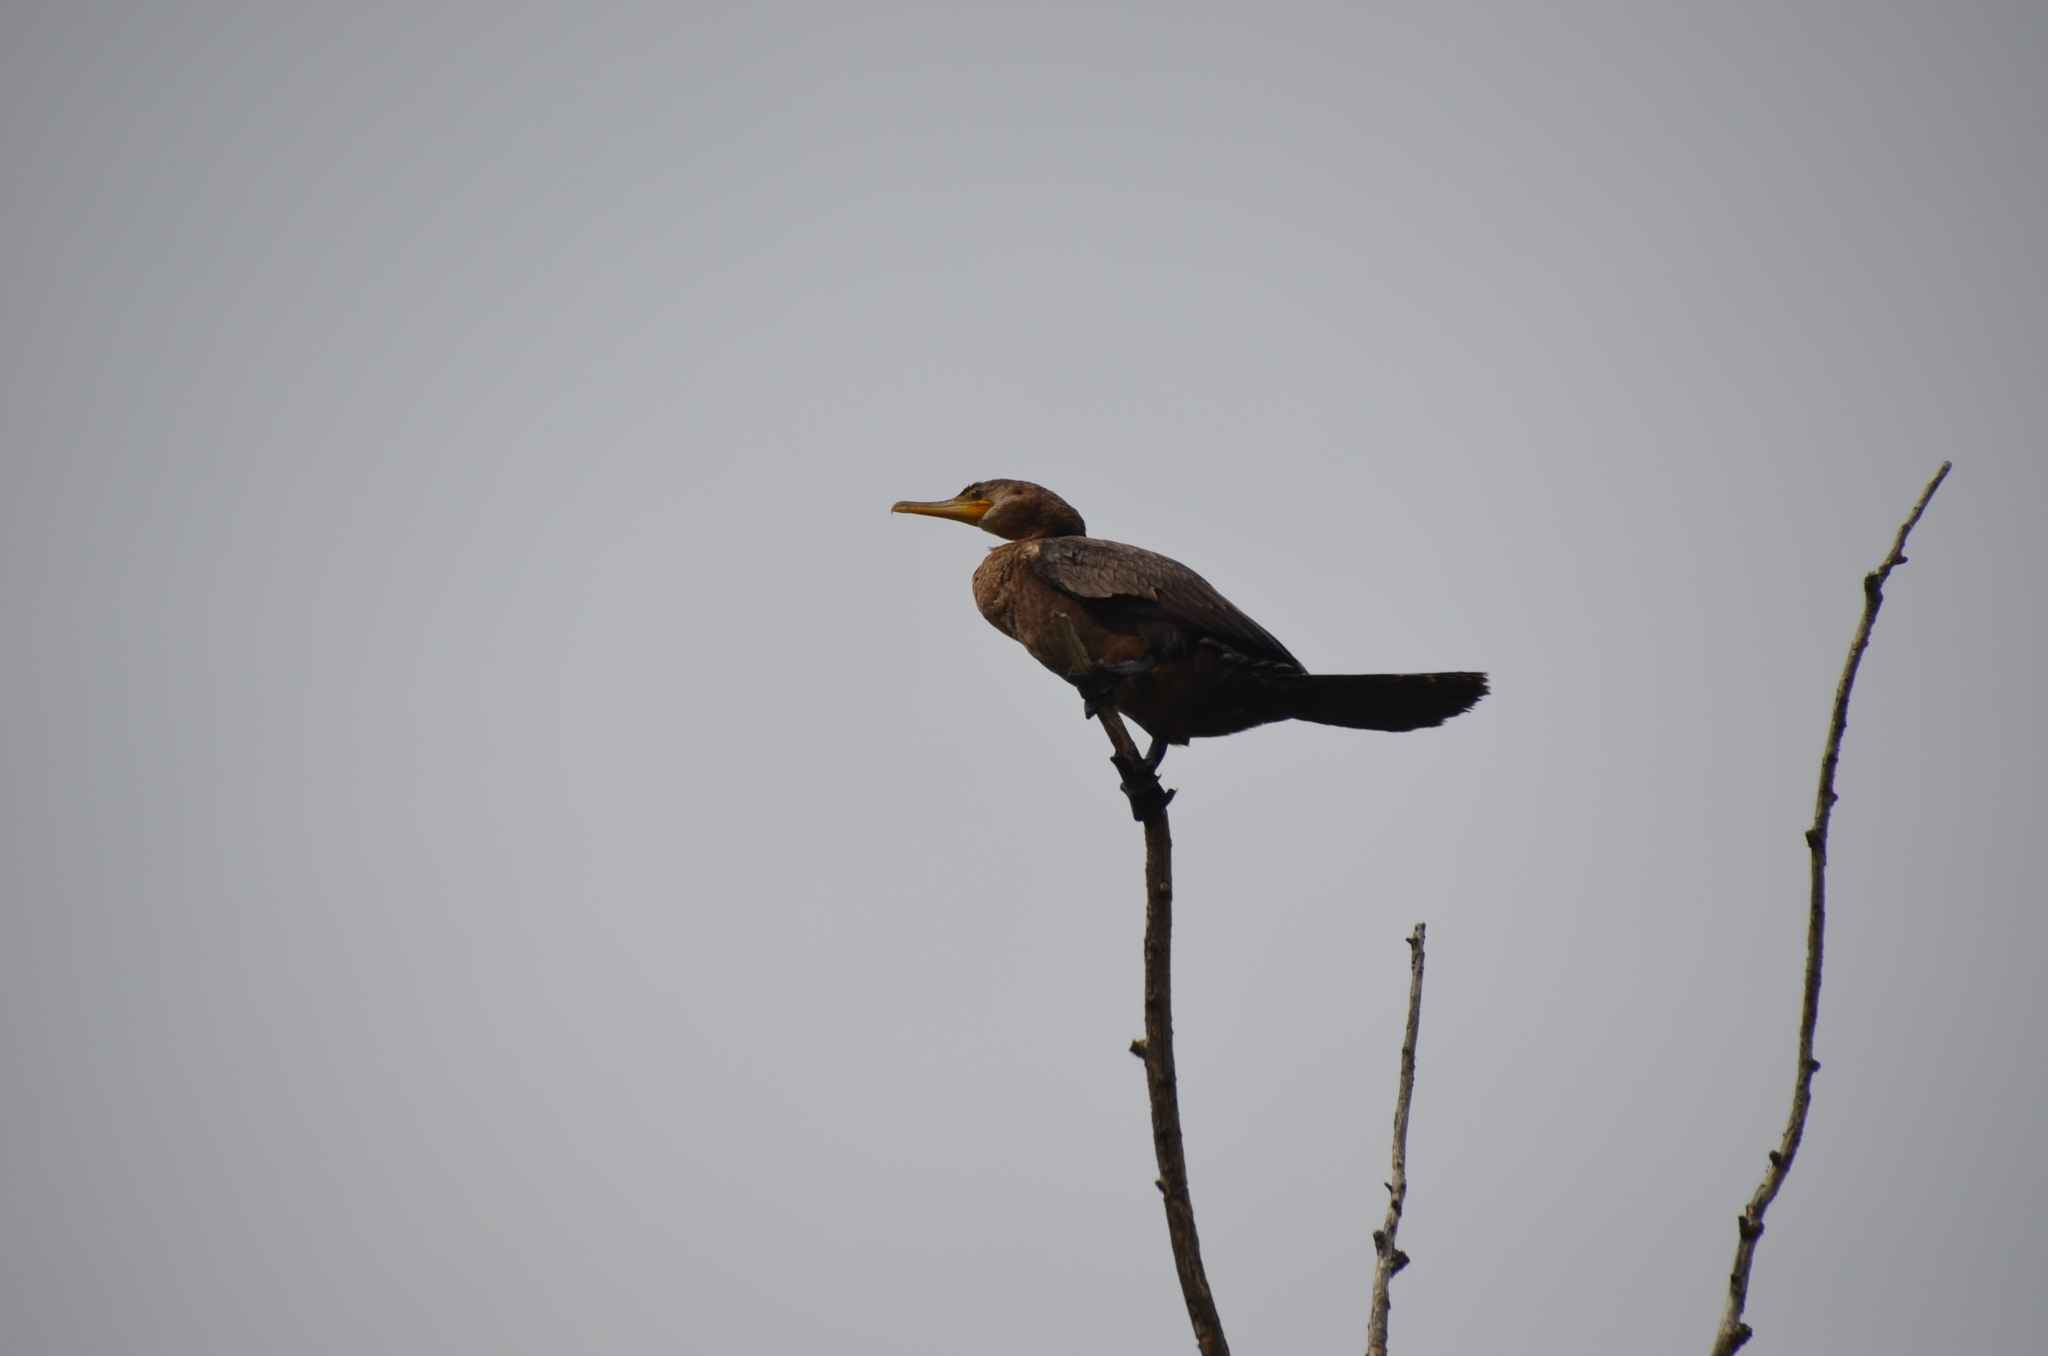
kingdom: Animalia
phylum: Chordata
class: Aves
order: Suliformes
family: Phalacrocoracidae
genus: Phalacrocorax
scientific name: Phalacrocorax brasilianus
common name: Neotropic cormorant
